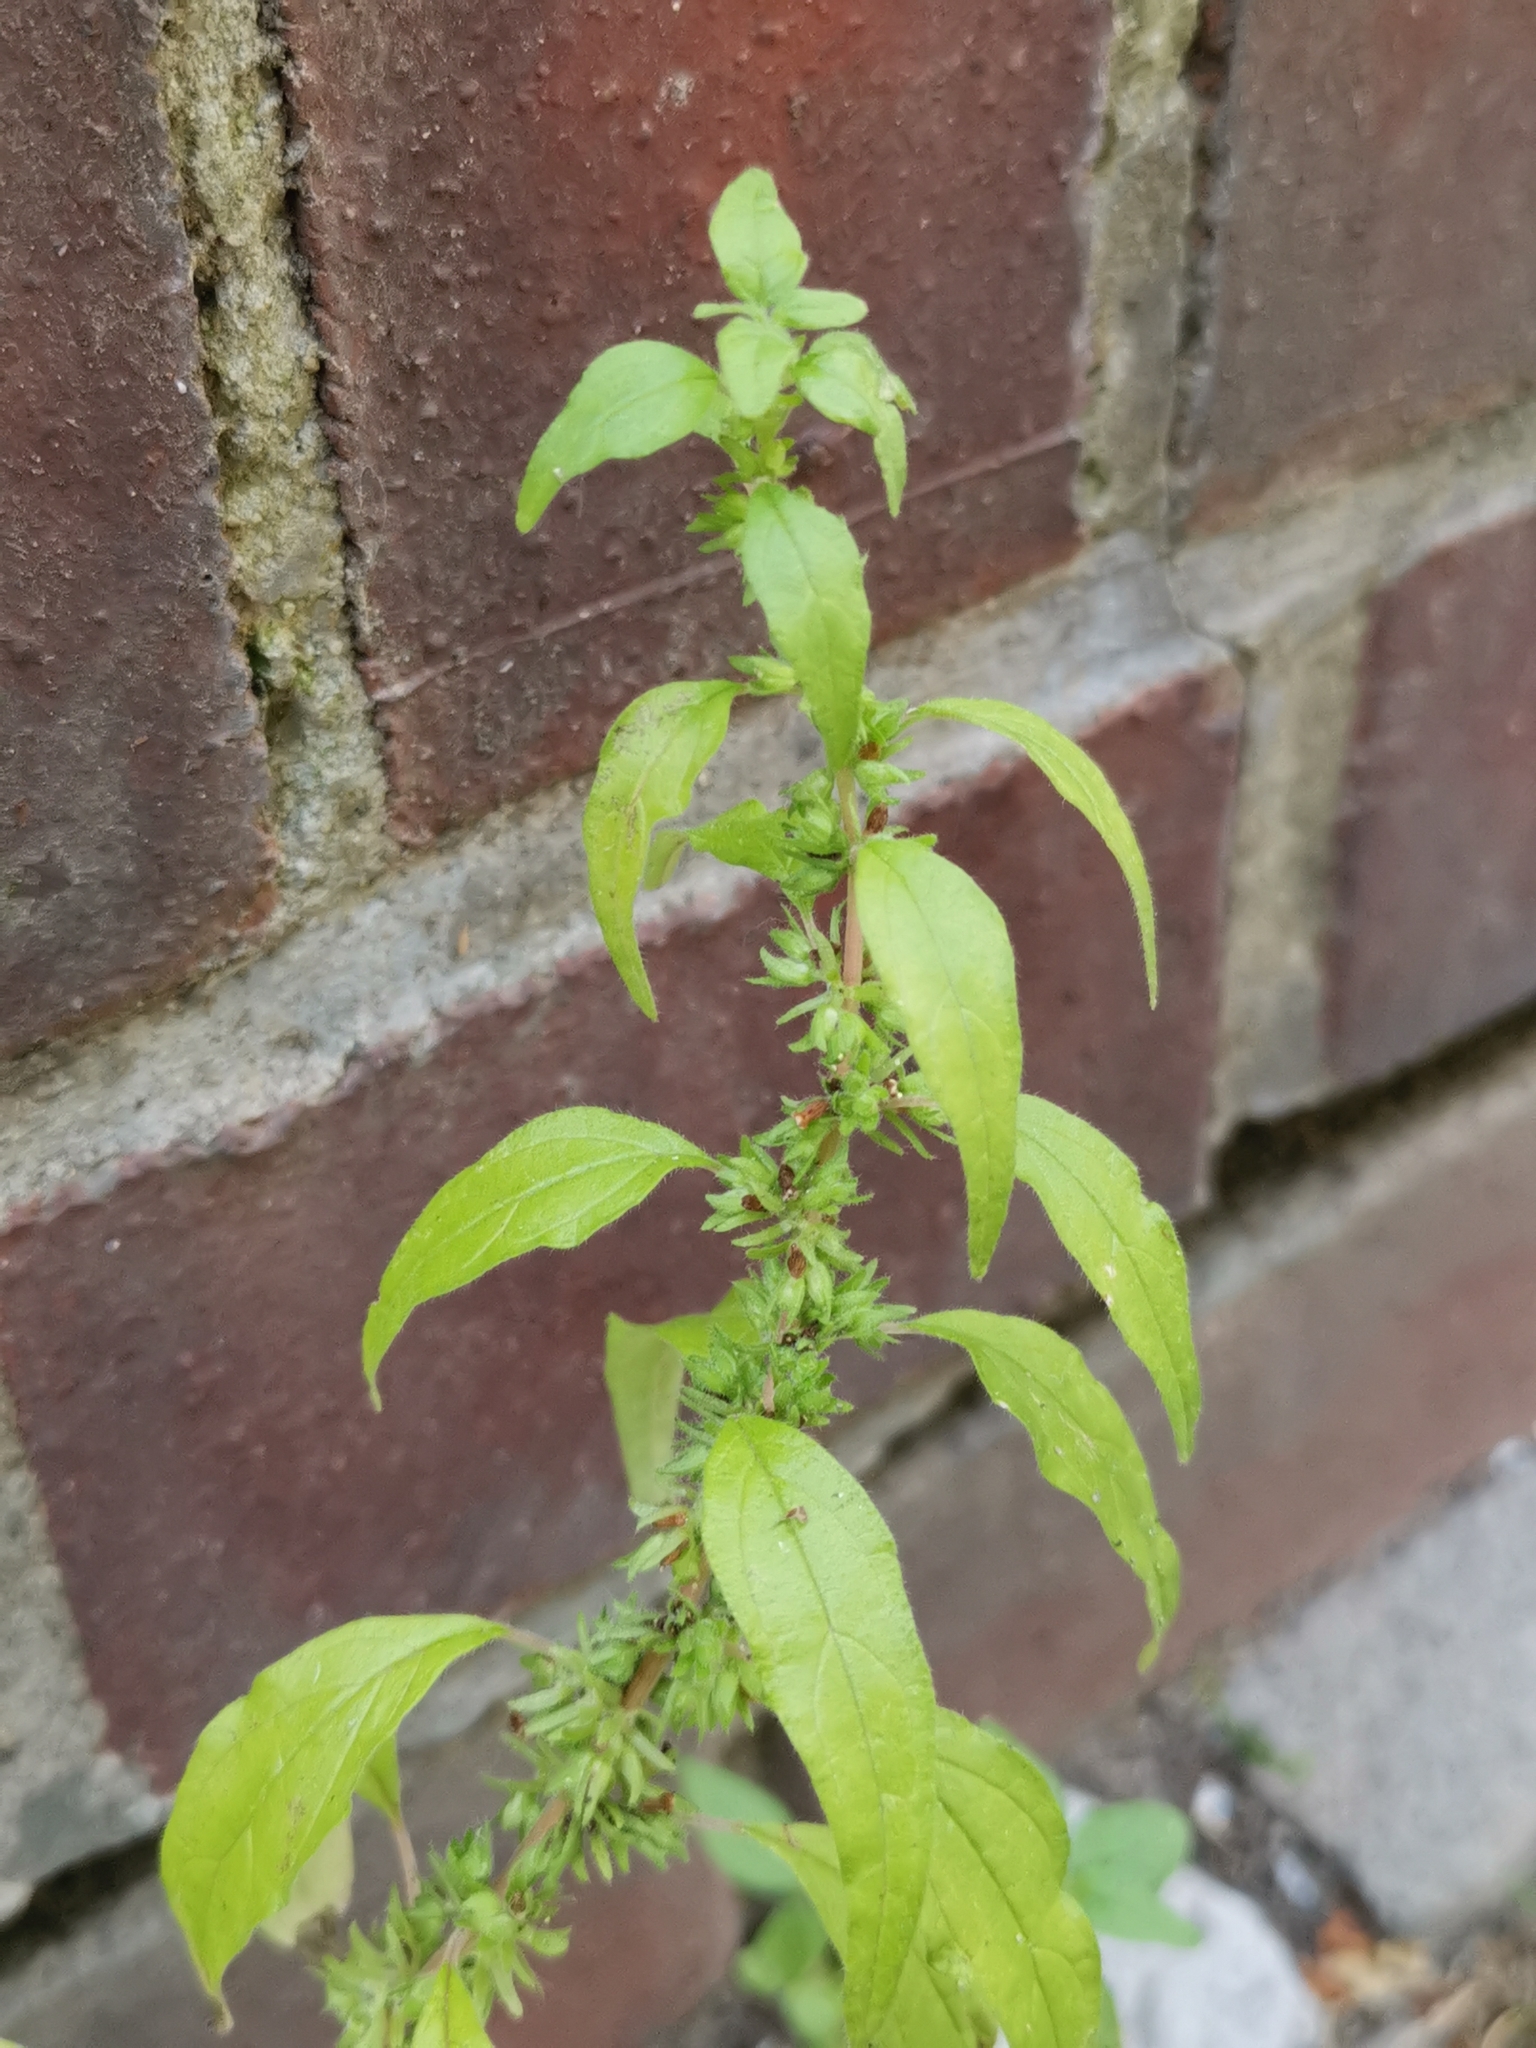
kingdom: Plantae
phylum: Tracheophyta
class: Magnoliopsida
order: Rosales
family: Urticaceae
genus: Parietaria
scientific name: Parietaria pensylvanica
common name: Pennsylvania pellitory
